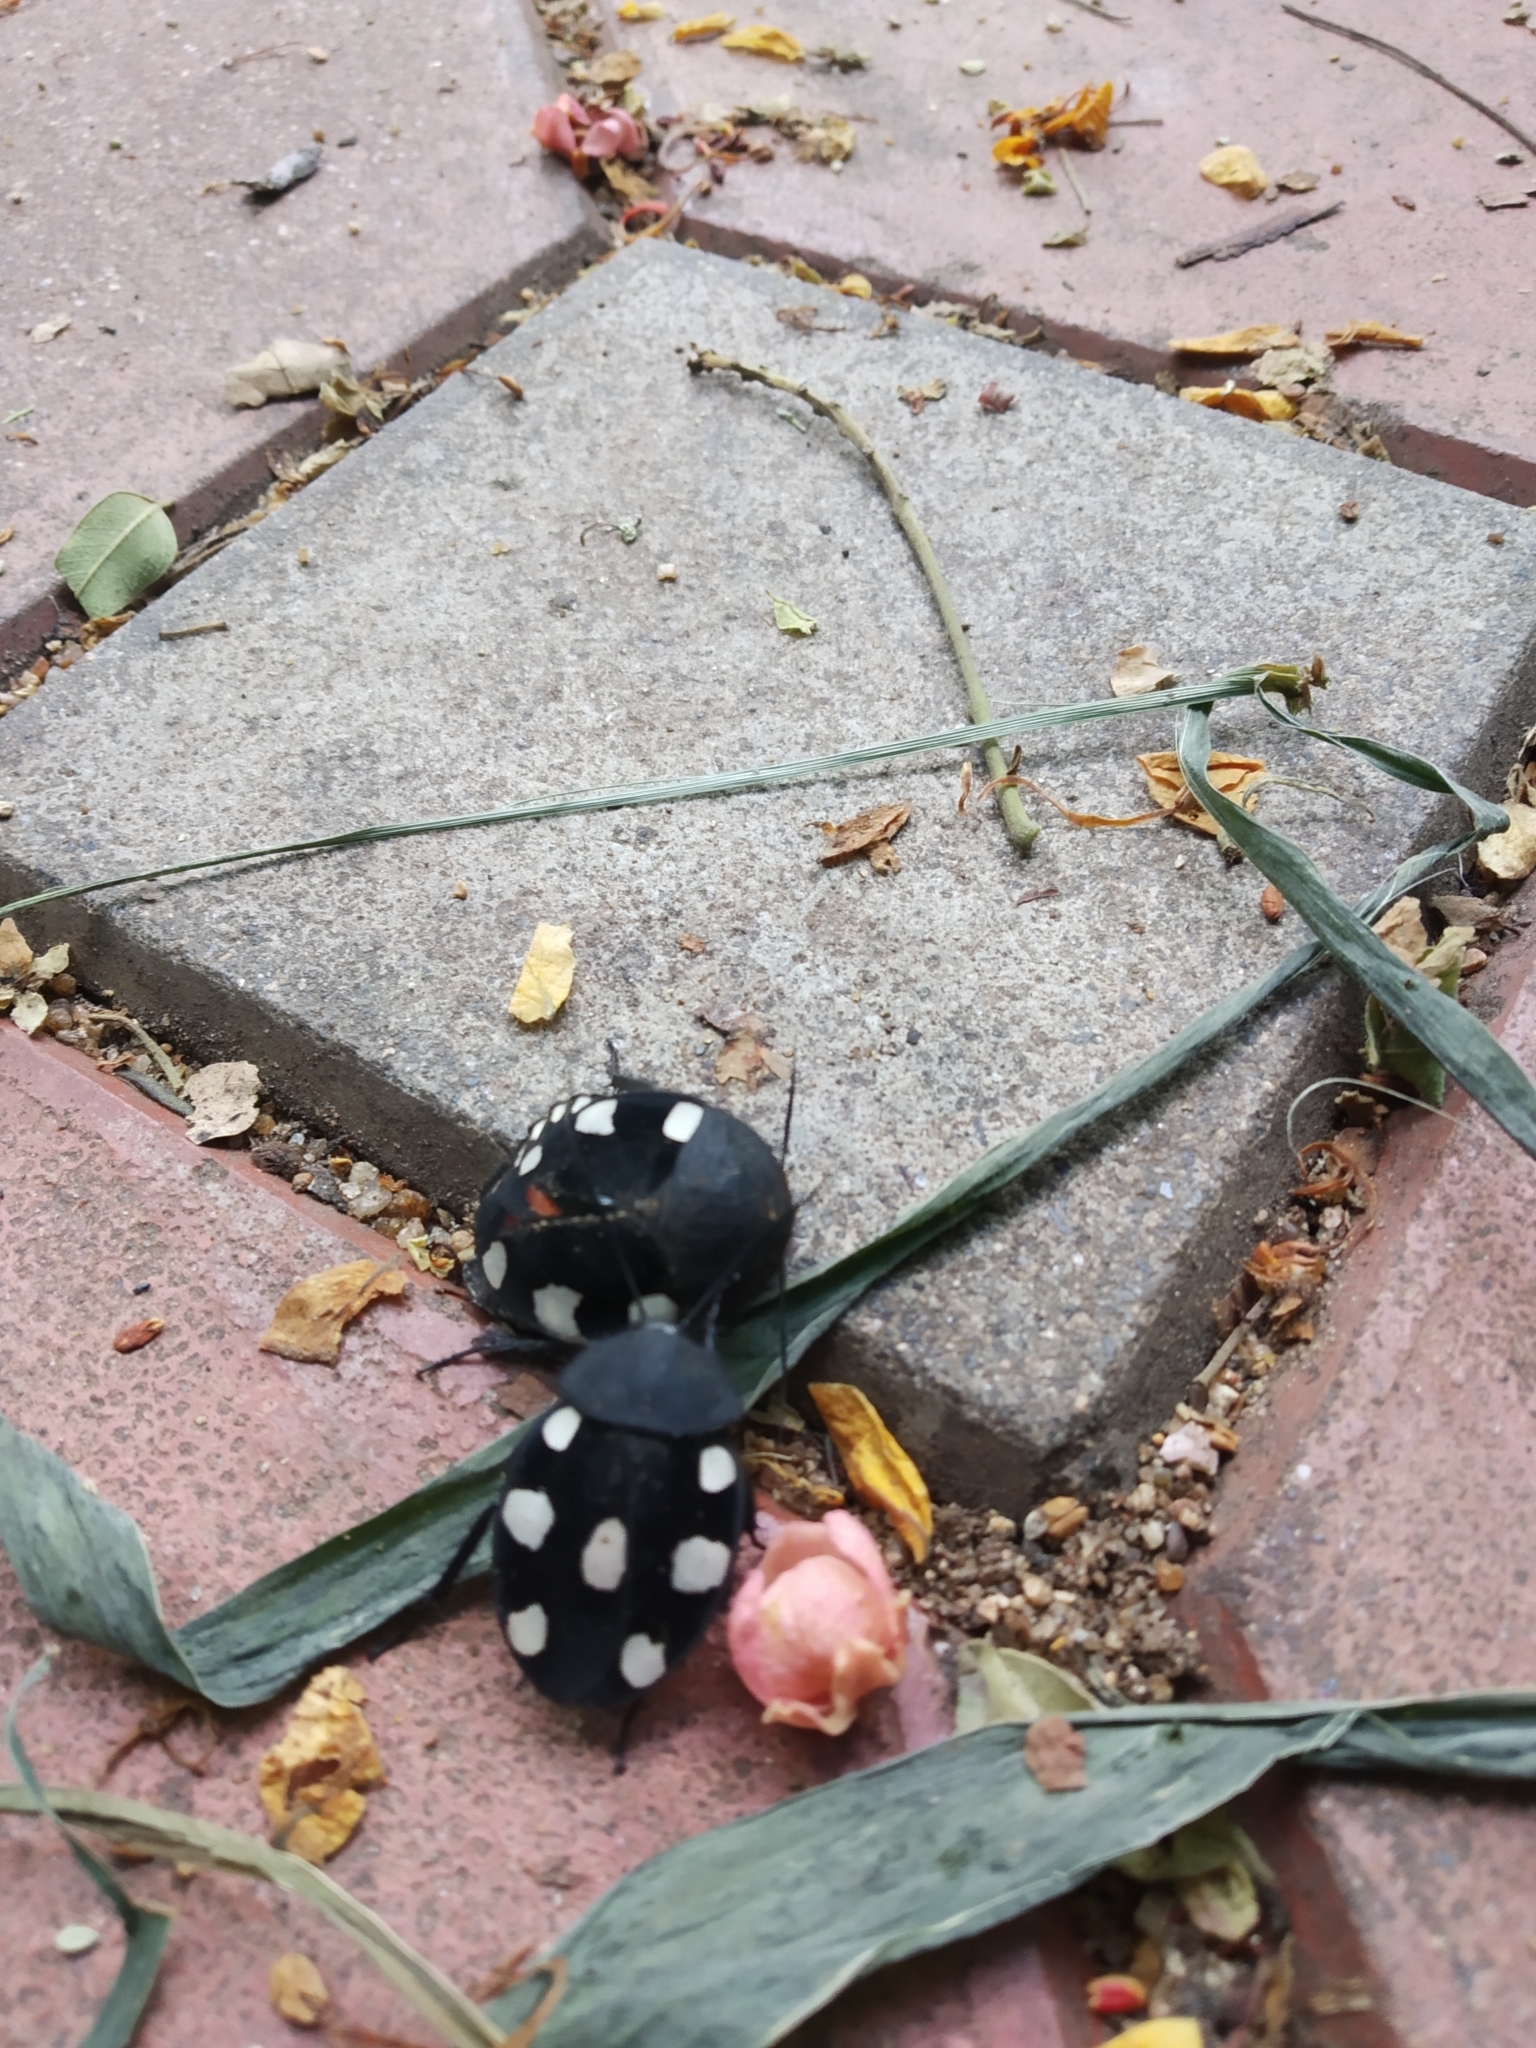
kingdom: Animalia
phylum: Arthropoda
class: Insecta
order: Blattodea
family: Corydiidae
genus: Therea
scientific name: Therea petiveriana
